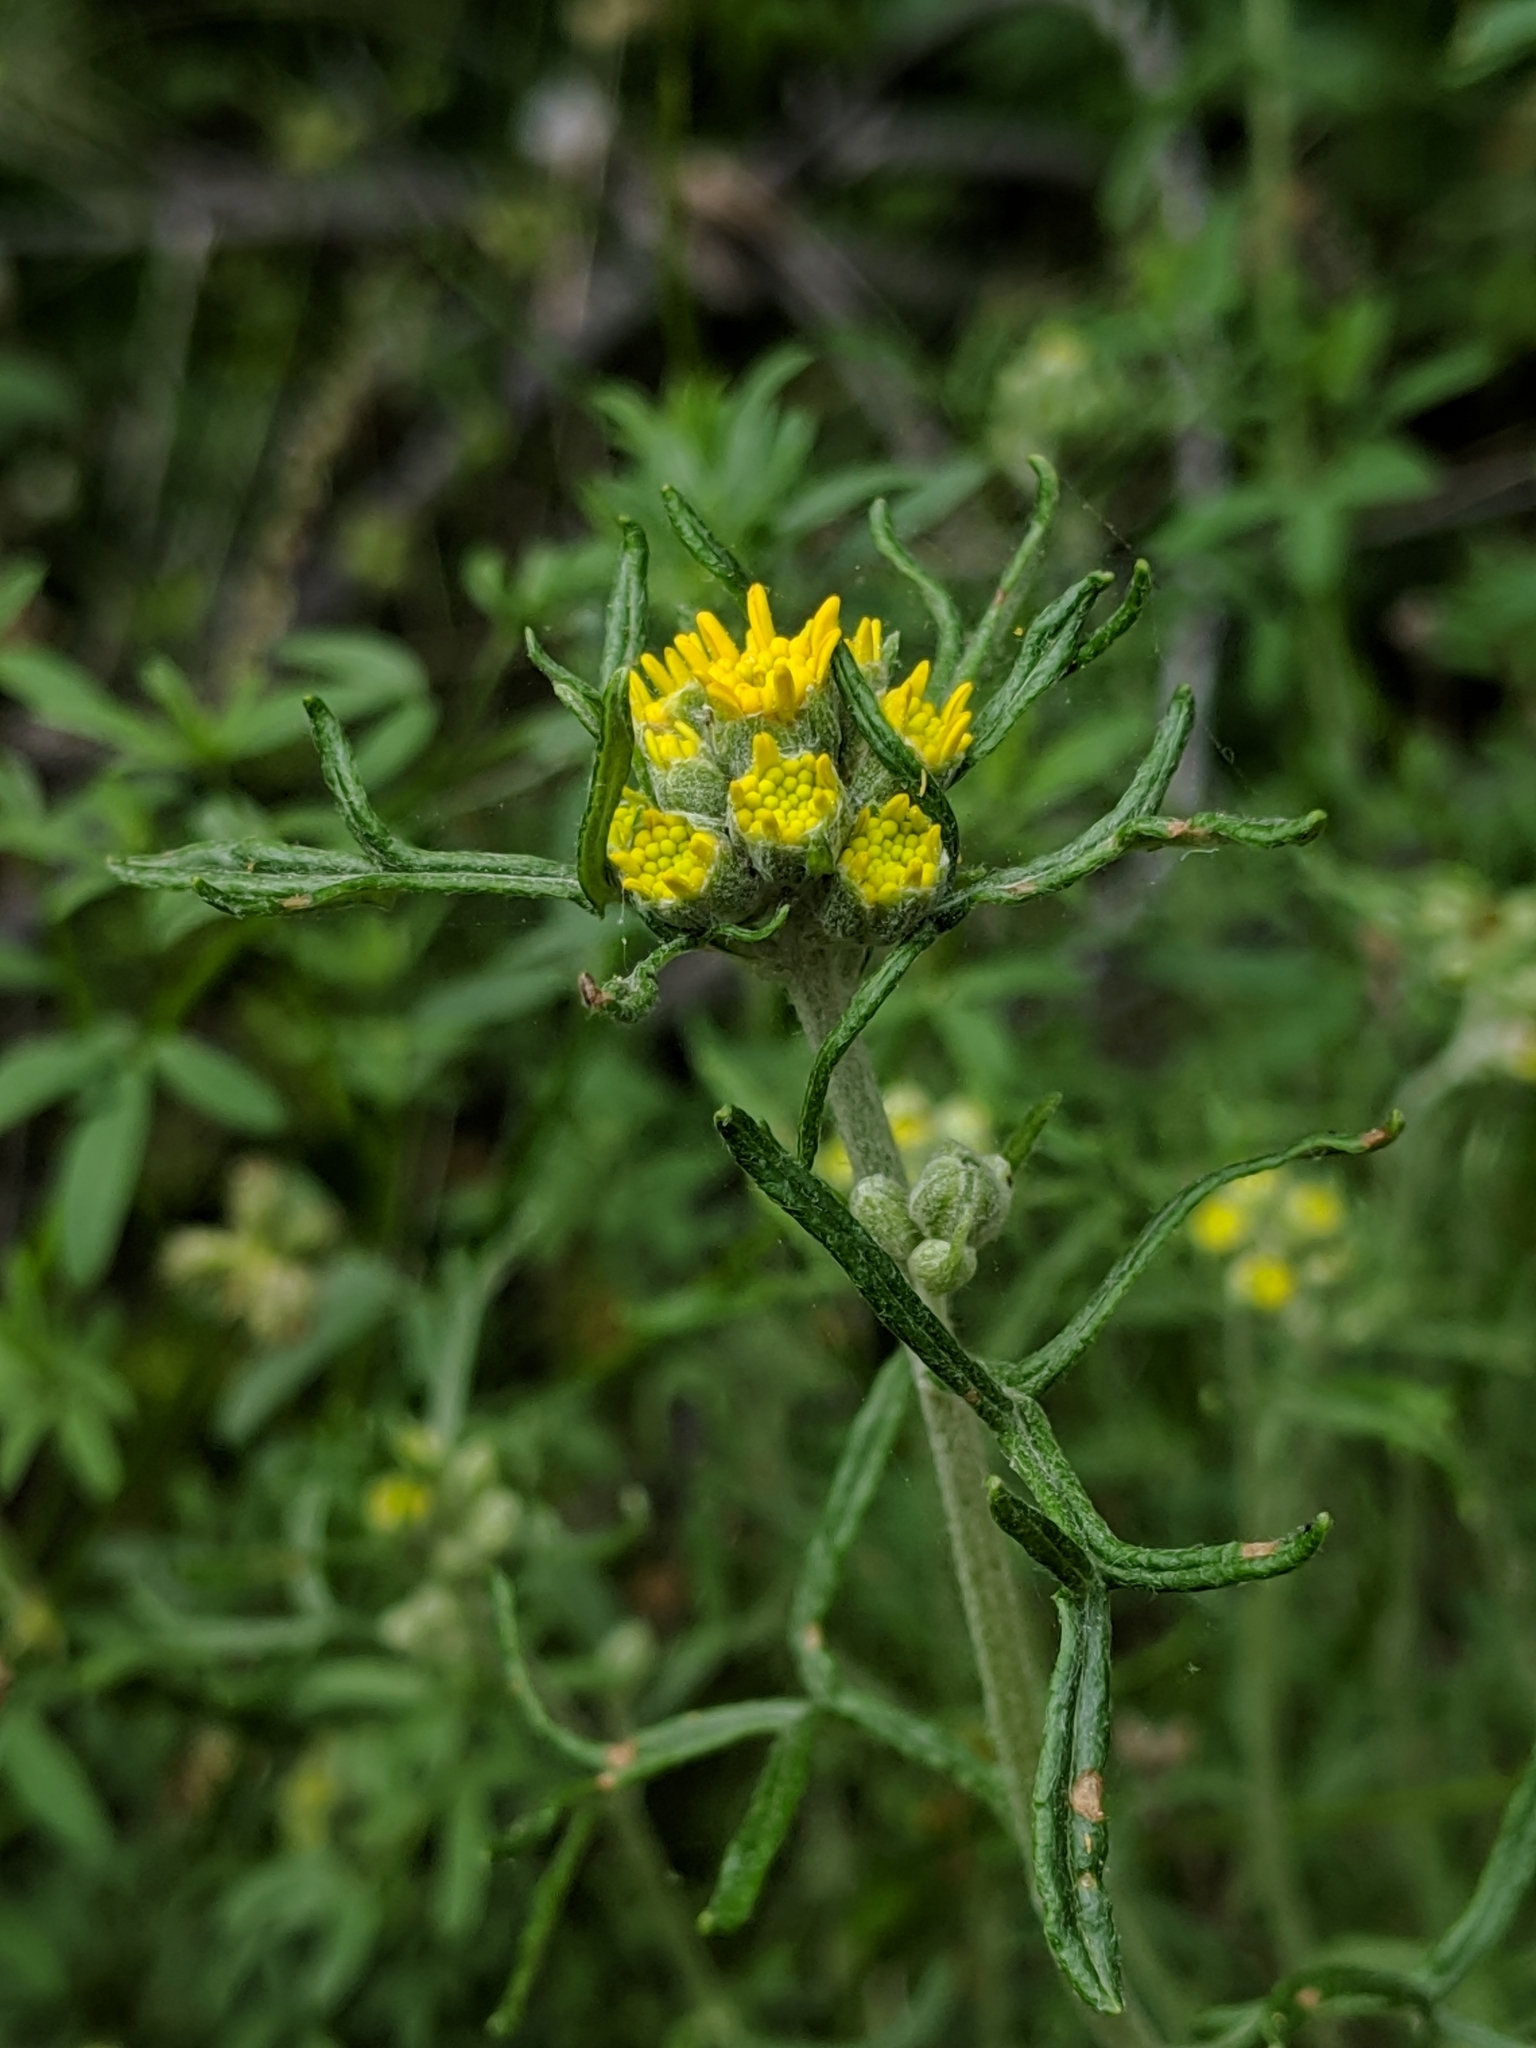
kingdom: Plantae
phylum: Tracheophyta
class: Magnoliopsida
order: Asterales
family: Asteraceae
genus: Eriophyllum
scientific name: Eriophyllum confertiflorum
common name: Golden-yarrow
